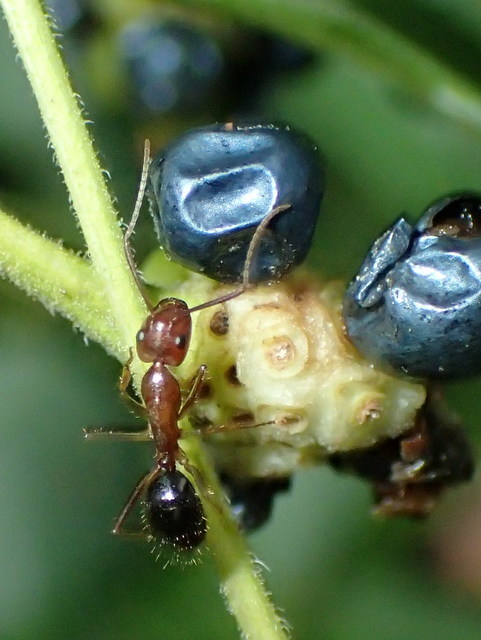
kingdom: Animalia
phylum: Arthropoda
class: Insecta
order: Hymenoptera
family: Formicidae
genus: Camponotus
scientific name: Camponotus floridanus
